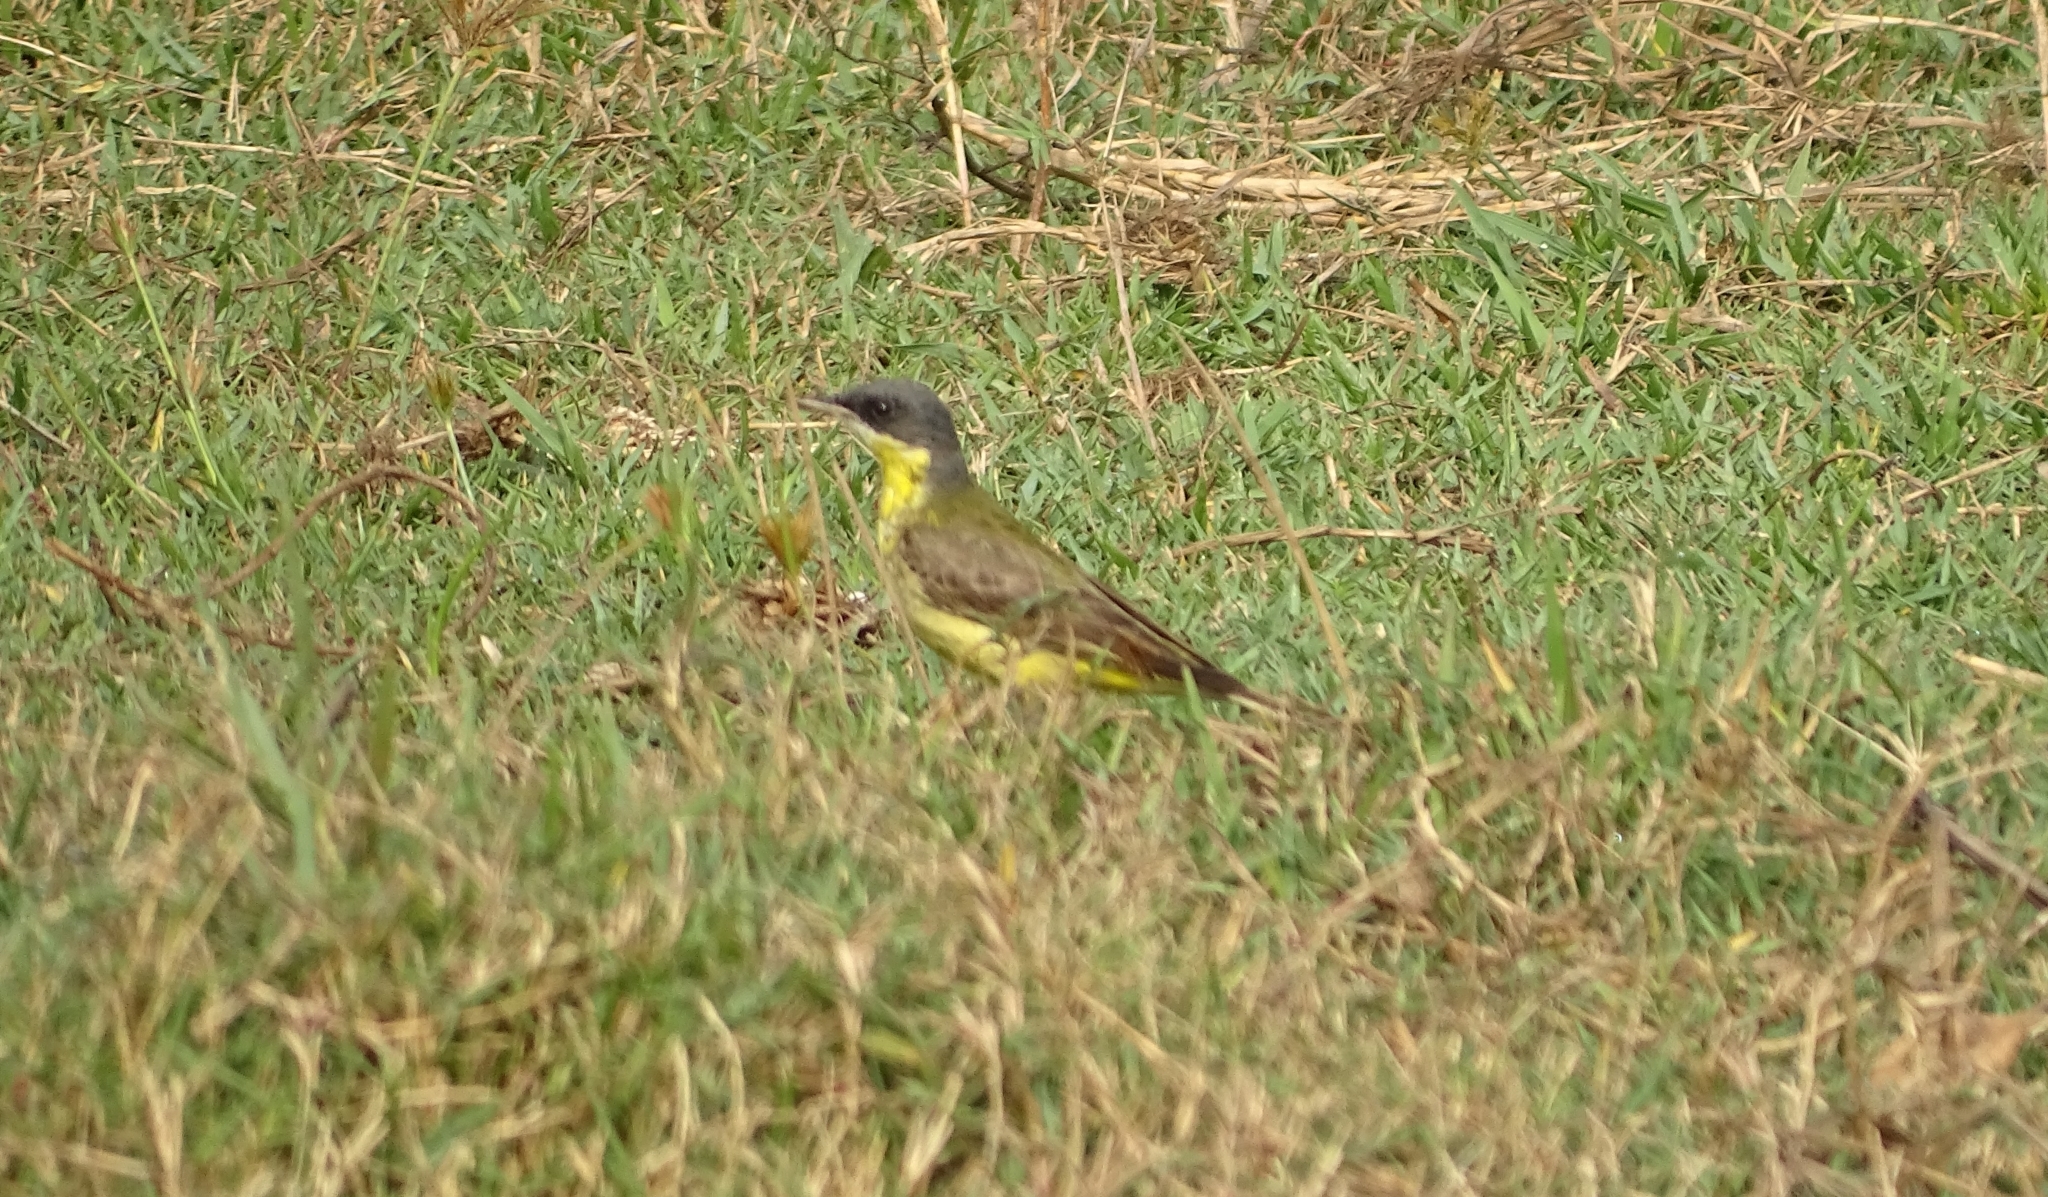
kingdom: Animalia
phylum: Chordata
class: Aves
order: Passeriformes
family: Motacillidae
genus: Motacilla
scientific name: Motacilla flava
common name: Western yellow wagtail
